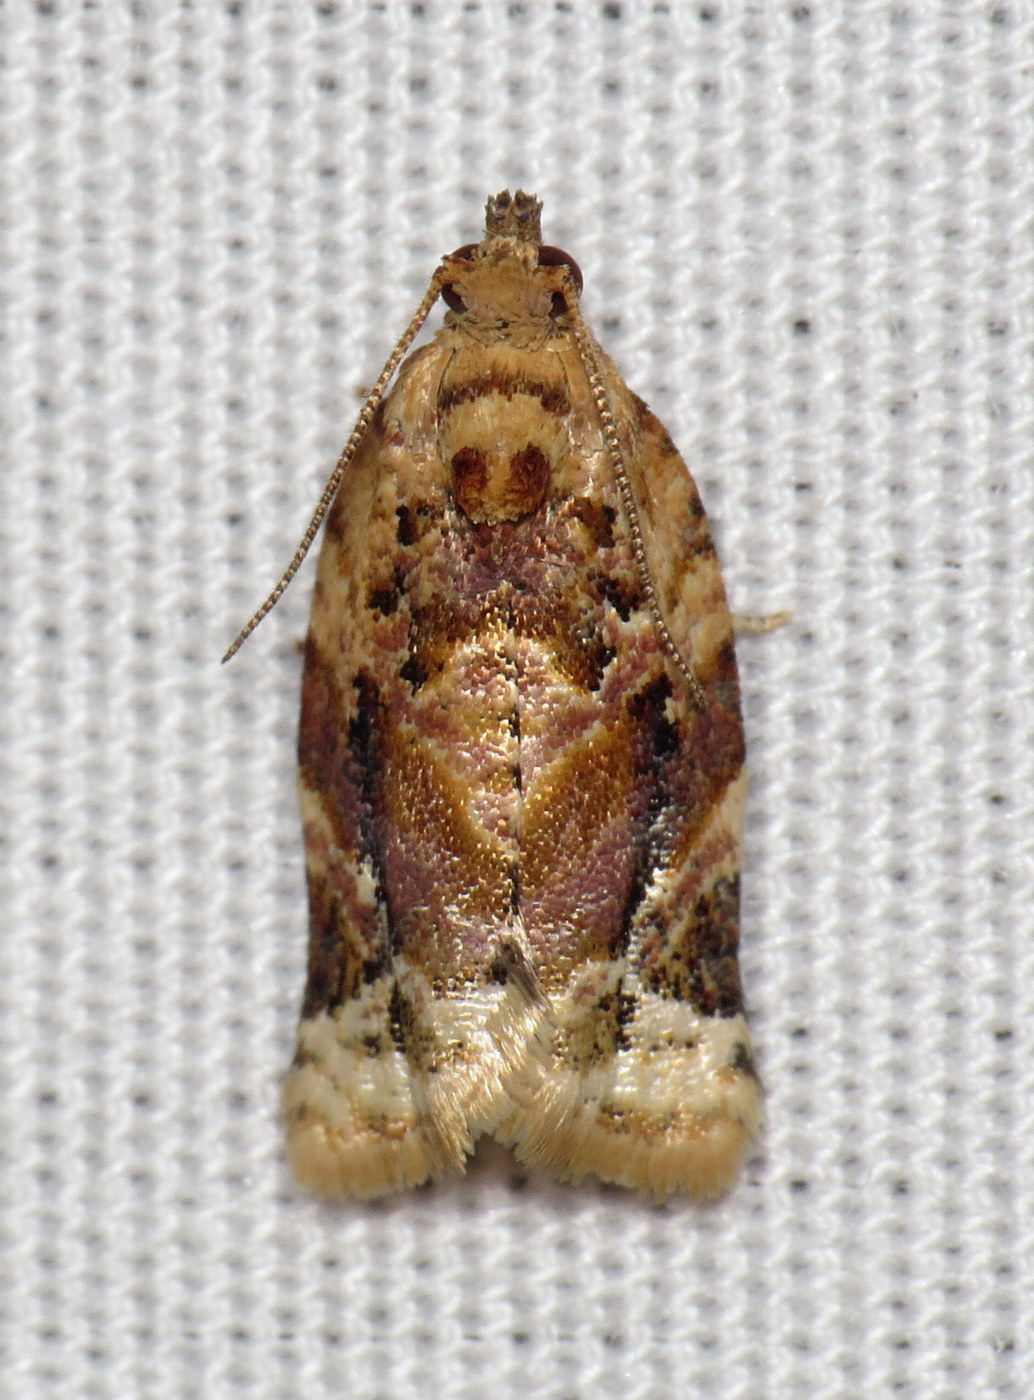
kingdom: Animalia
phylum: Arthropoda
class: Insecta
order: Lepidoptera
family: Tortricidae
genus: Argyrotaenia
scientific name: Argyrotaenia velutinana
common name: Red-banded leafroller moth
